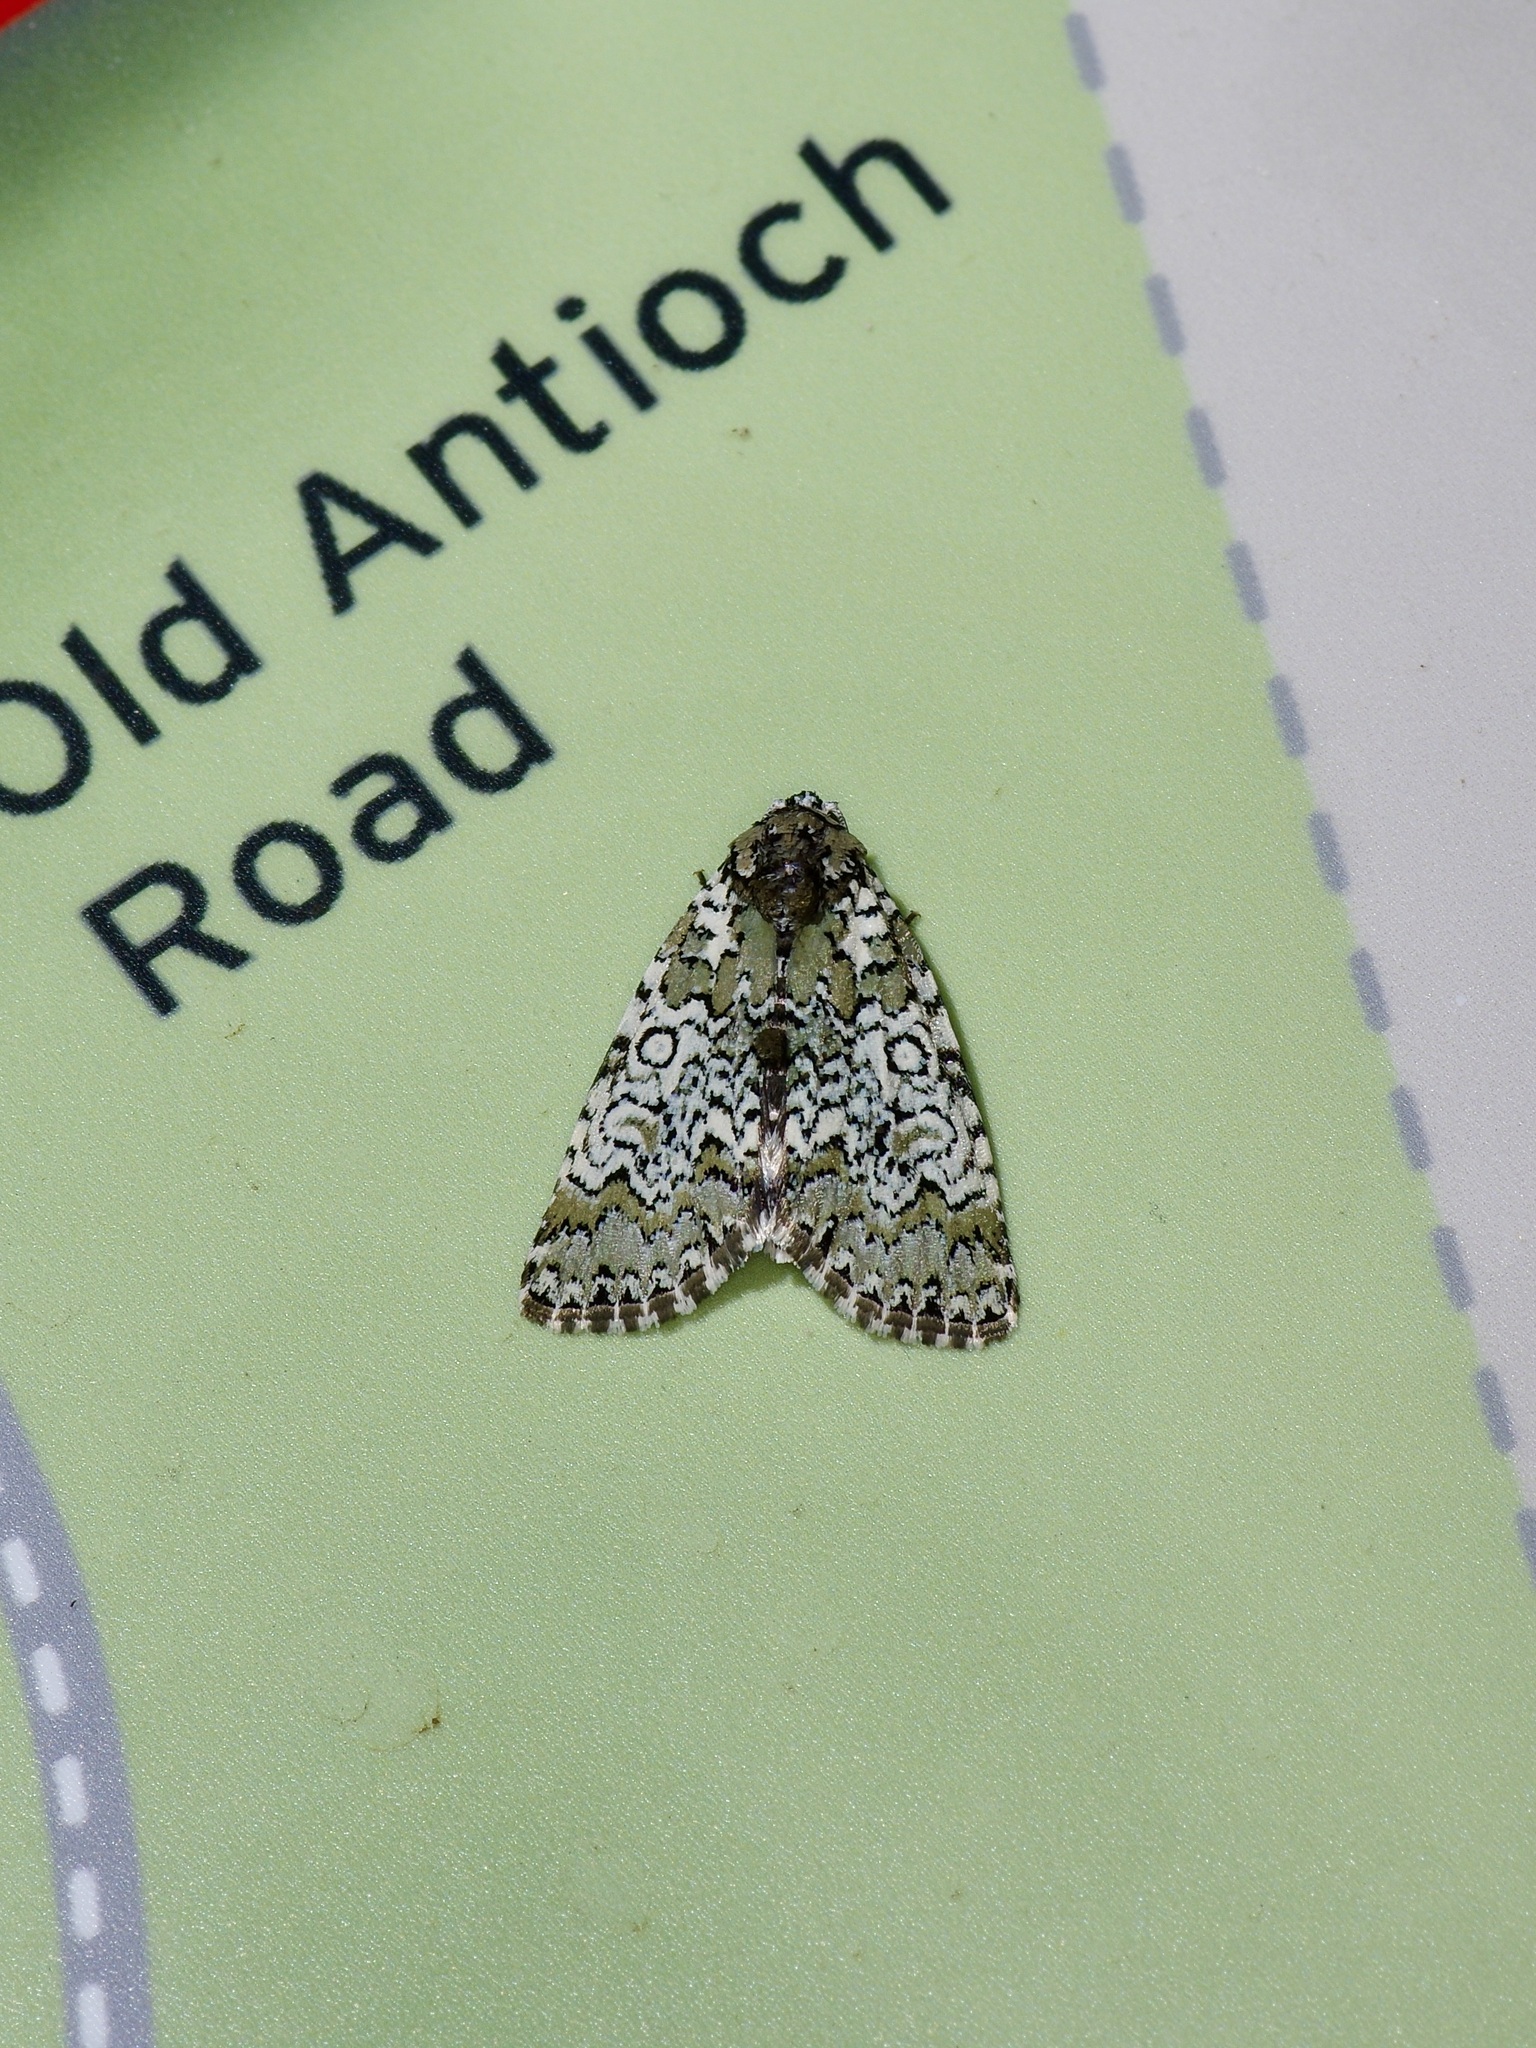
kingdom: Animalia
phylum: Arthropoda
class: Insecta
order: Lepidoptera
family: Noctuidae
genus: Cerma
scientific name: Cerma cora
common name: Bird dropping moth
